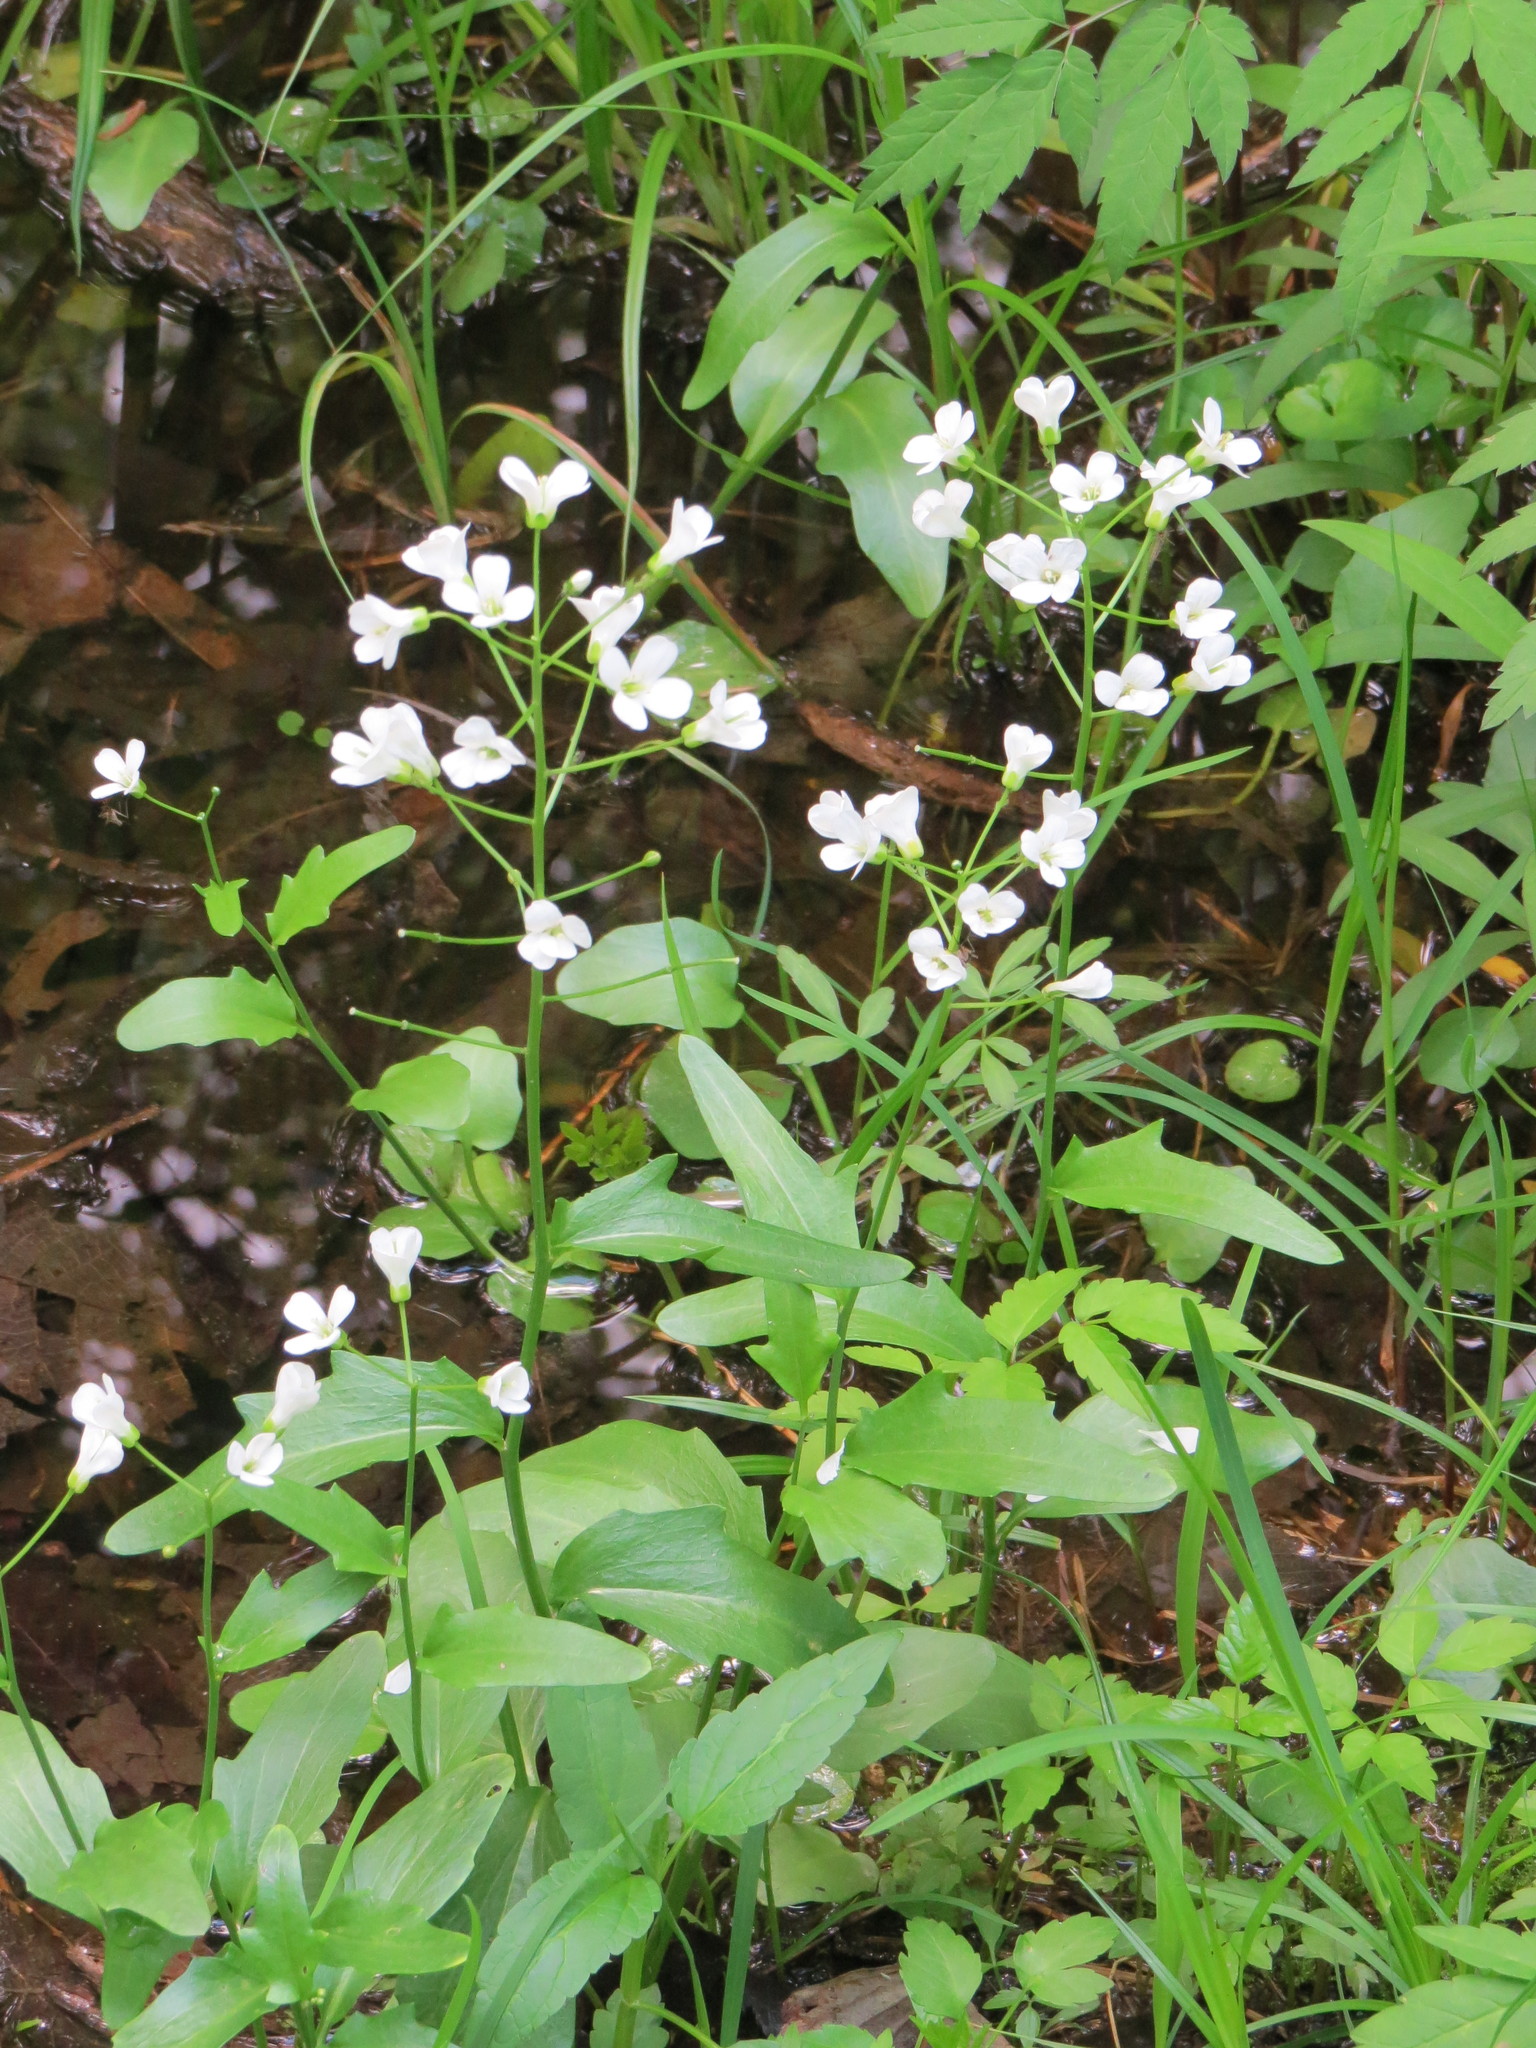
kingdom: Plantae
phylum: Tracheophyta
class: Magnoliopsida
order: Brassicales
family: Brassicaceae
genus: Cardamine
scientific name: Cardamine douglassii
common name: Purple cress
